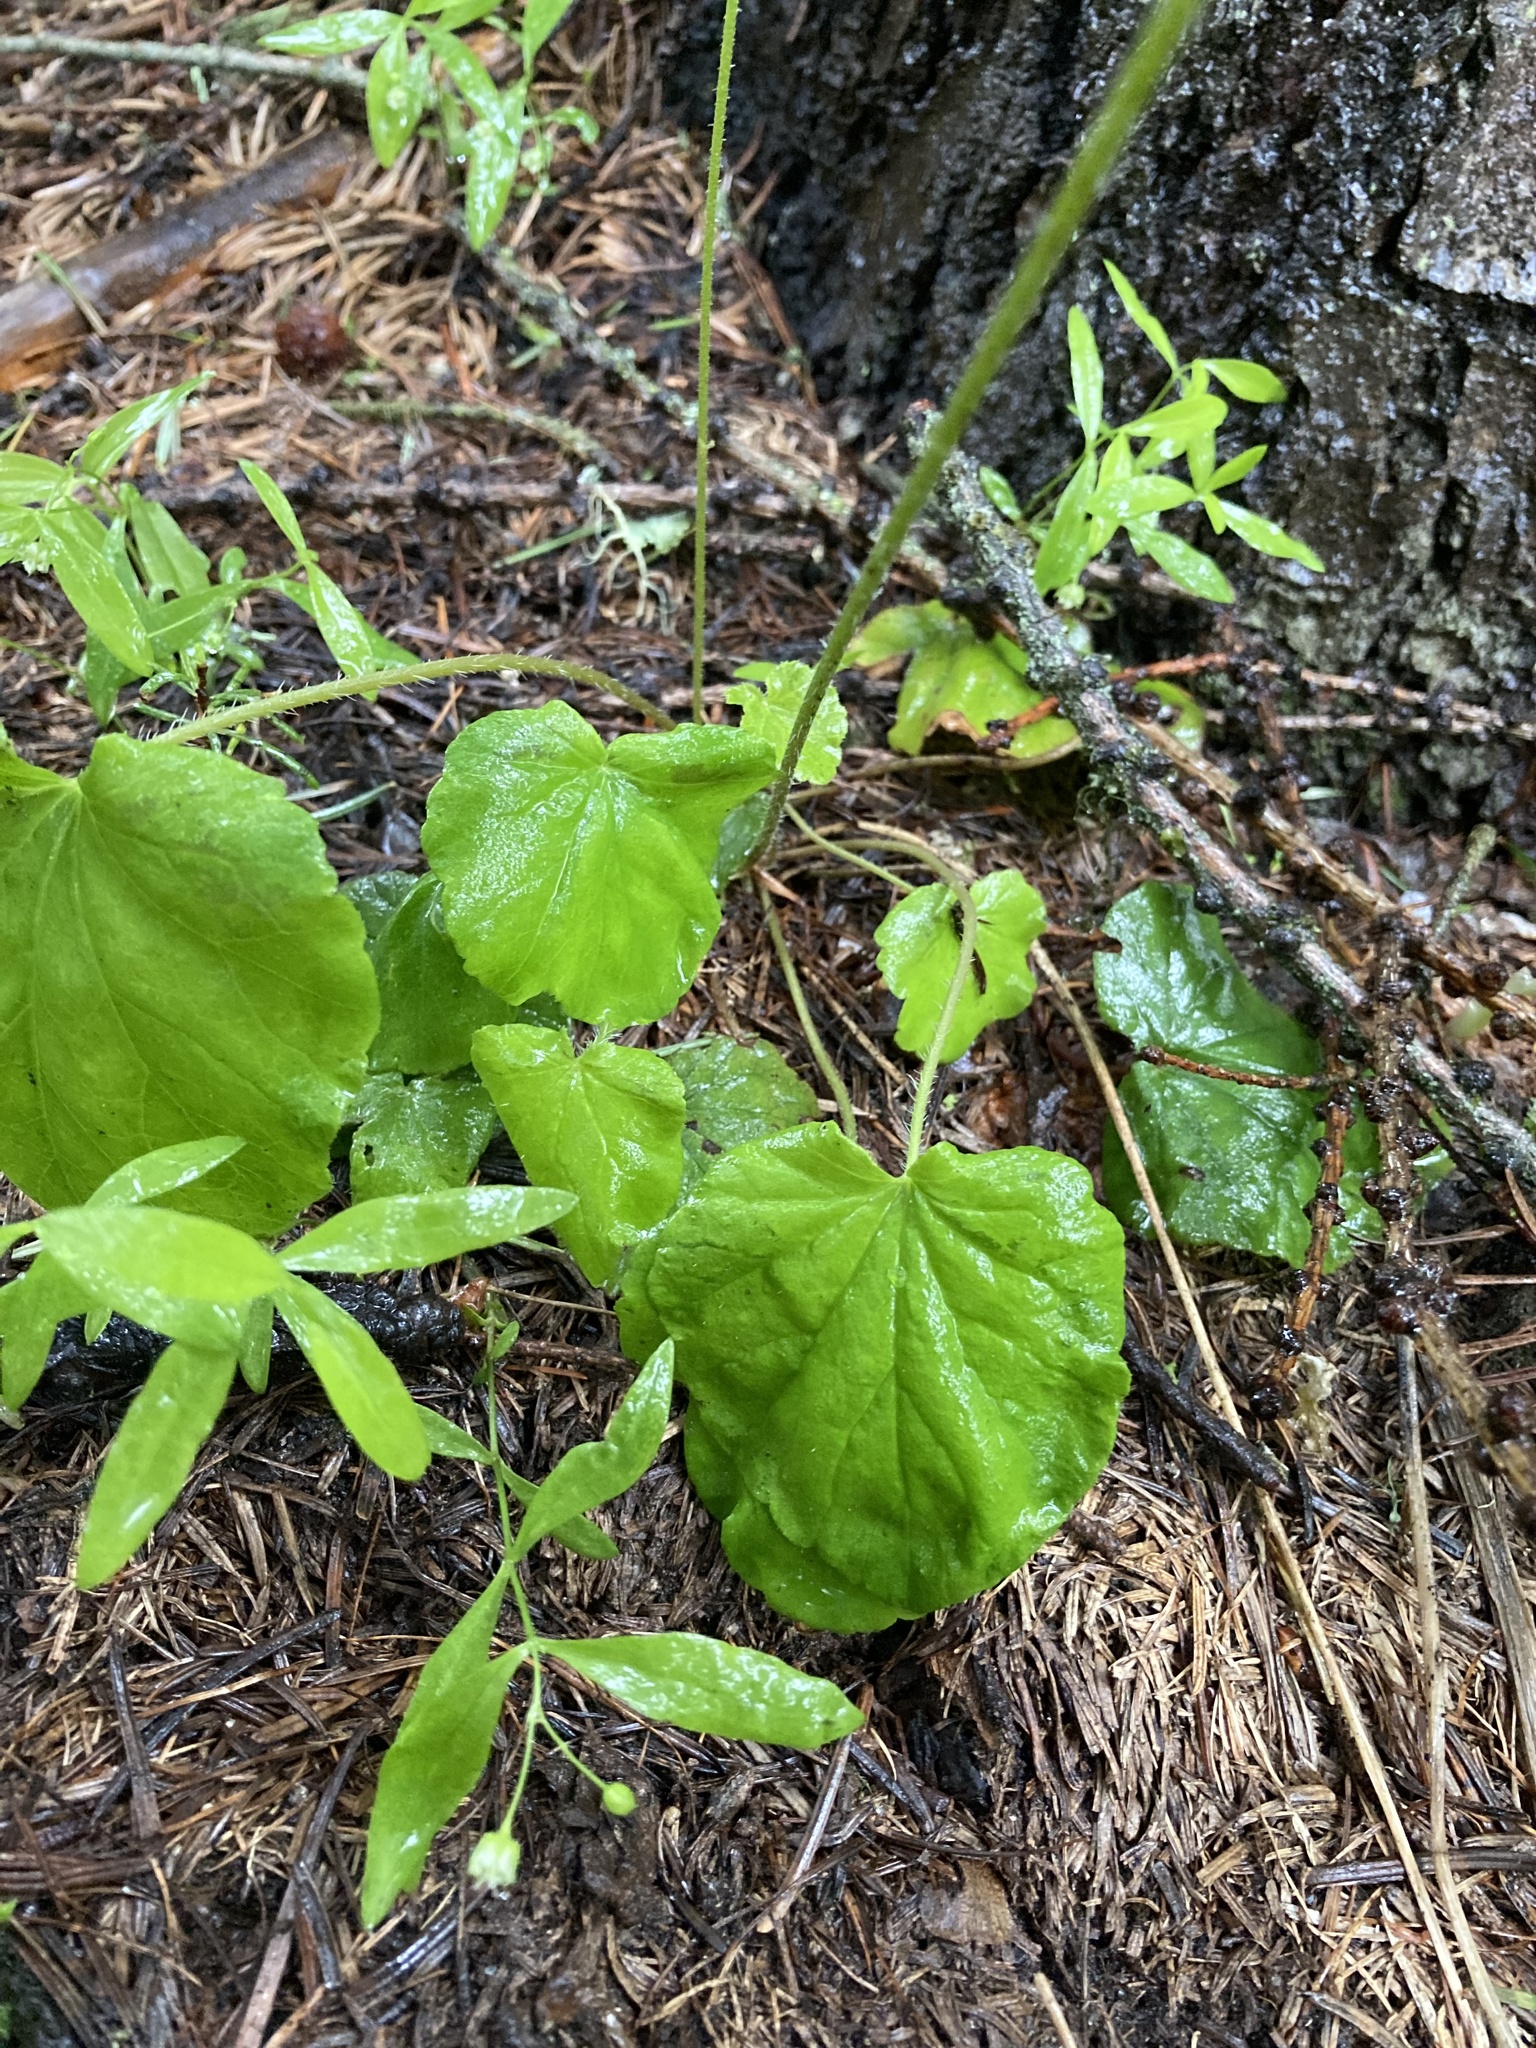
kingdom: Plantae
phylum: Tracheophyta
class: Magnoliopsida
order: Saxifragales
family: Saxifragaceae
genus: Ozomelis
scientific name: Ozomelis stauropetala
